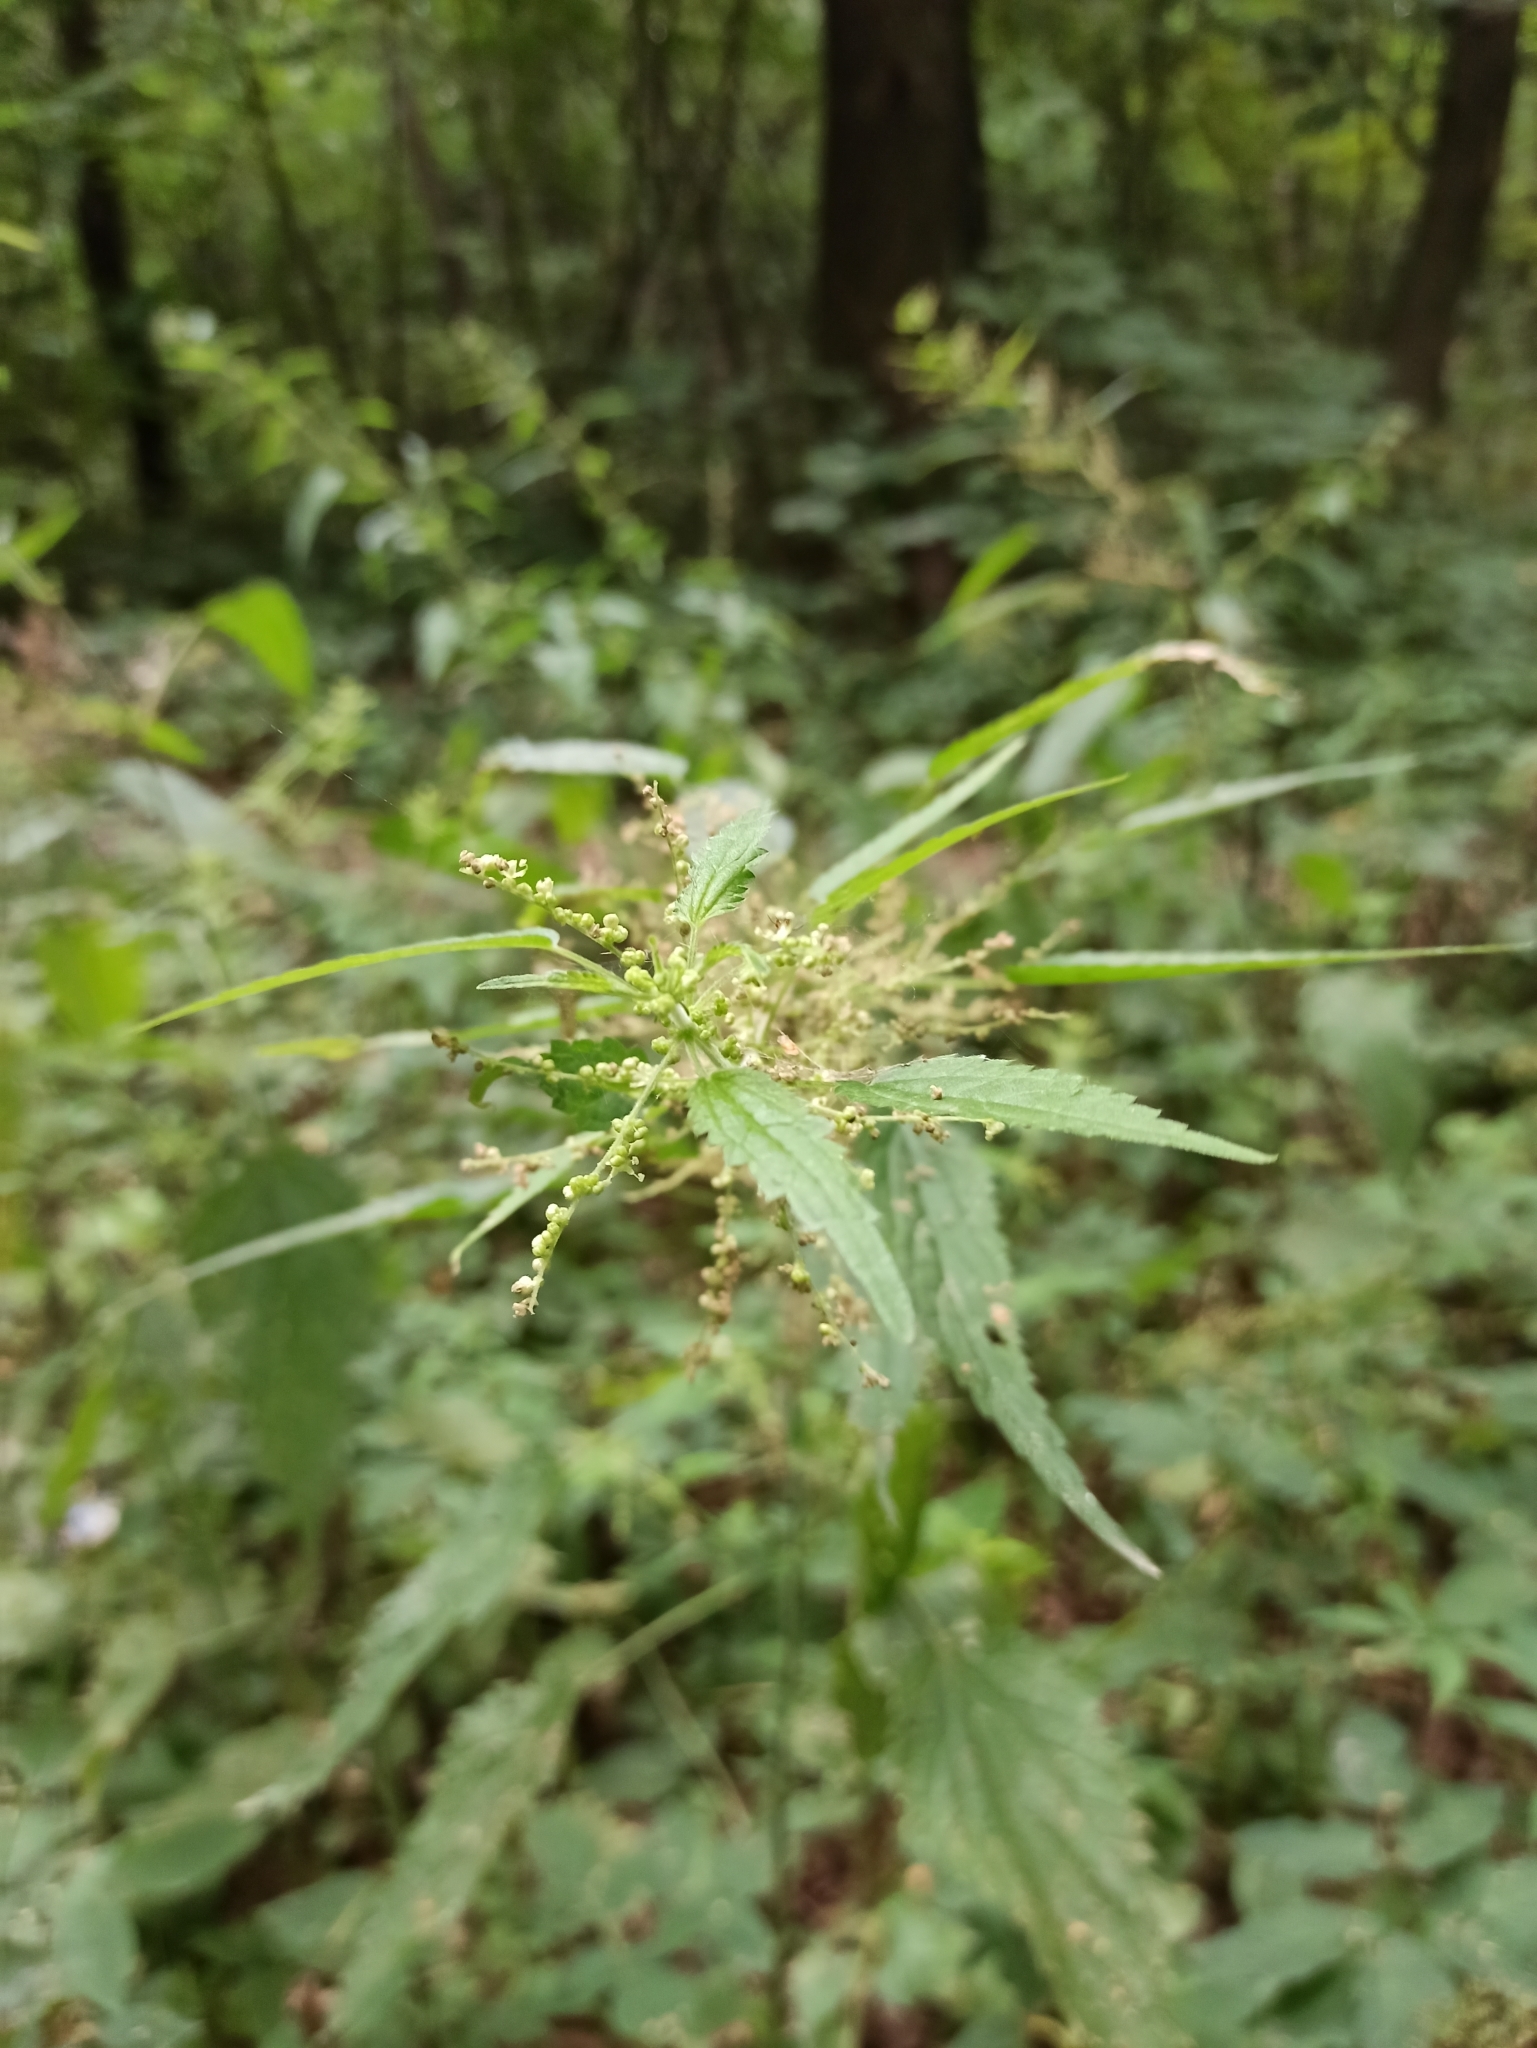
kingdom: Plantae
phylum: Tracheophyta
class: Magnoliopsida
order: Rosales
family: Urticaceae
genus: Urtica
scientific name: Urtica dioica
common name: Common nettle
